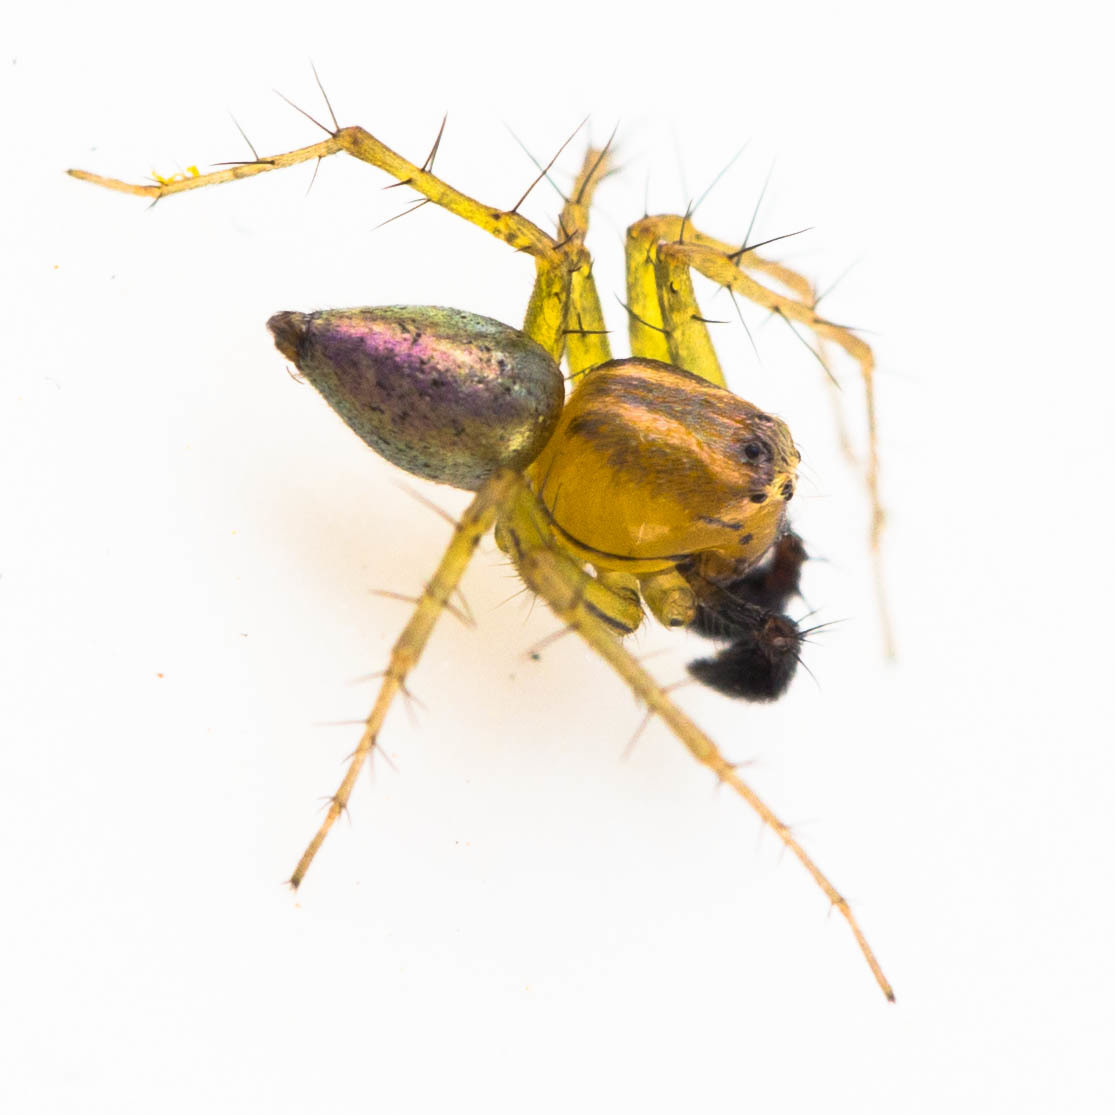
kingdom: Animalia
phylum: Arthropoda
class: Arachnida
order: Araneae
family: Oxyopidae
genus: Oxyopes
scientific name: Oxyopes salticus
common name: Lynx spiders
